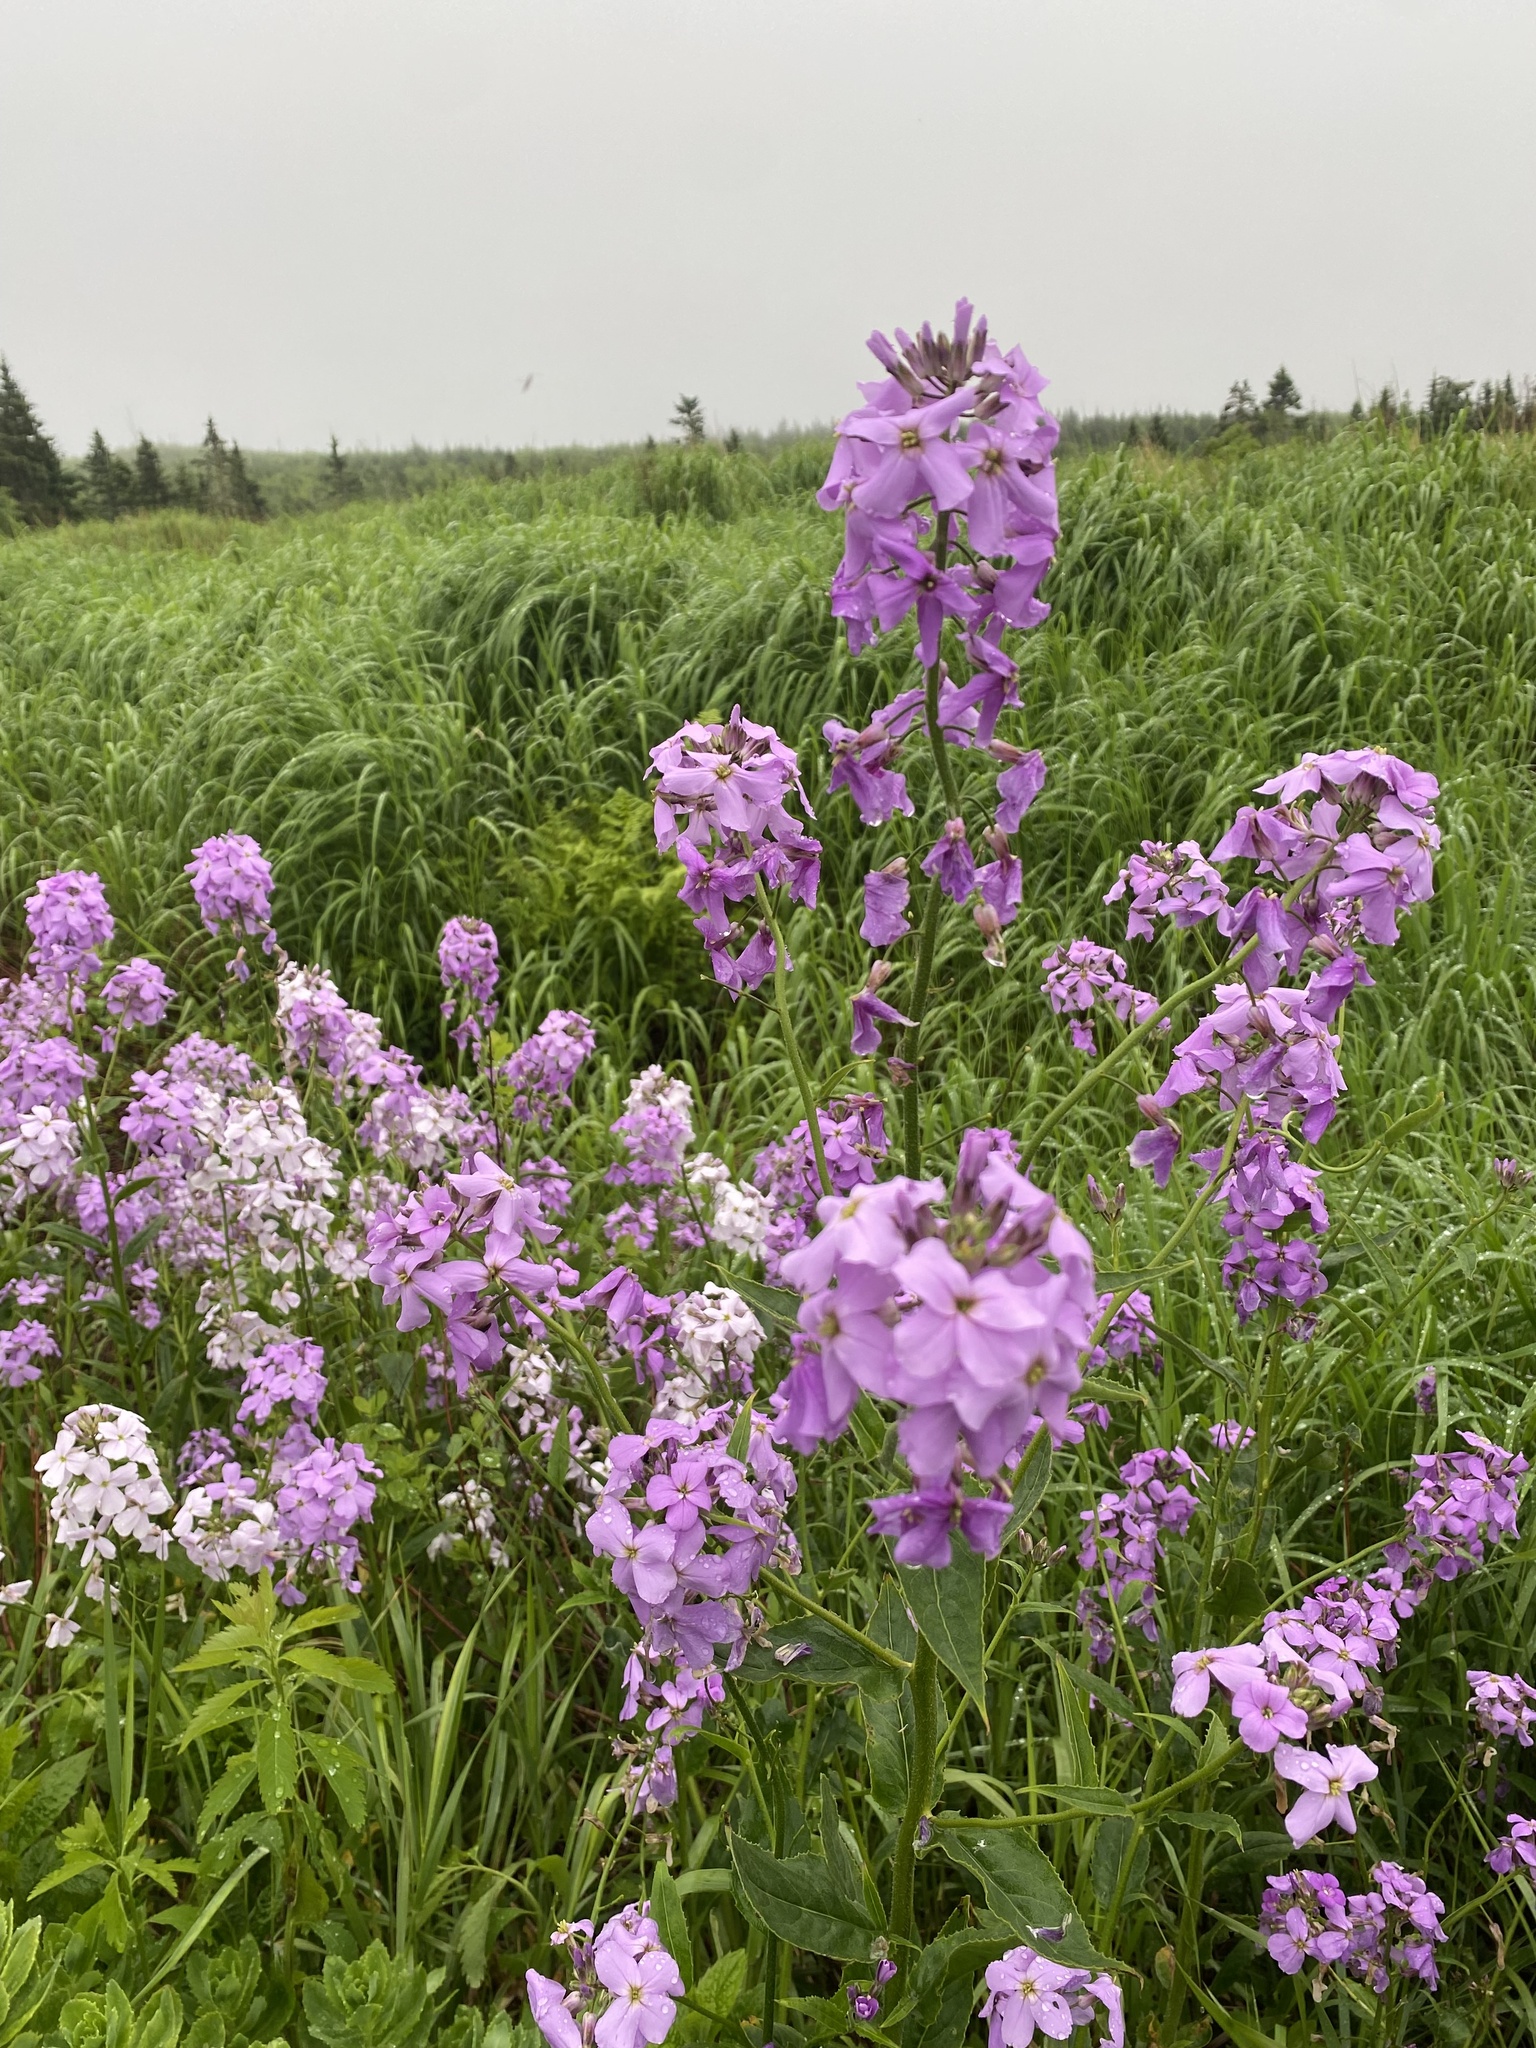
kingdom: Plantae
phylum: Tracheophyta
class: Magnoliopsida
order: Brassicales
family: Brassicaceae
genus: Hesperis
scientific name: Hesperis matronalis
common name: Dame's-violet
